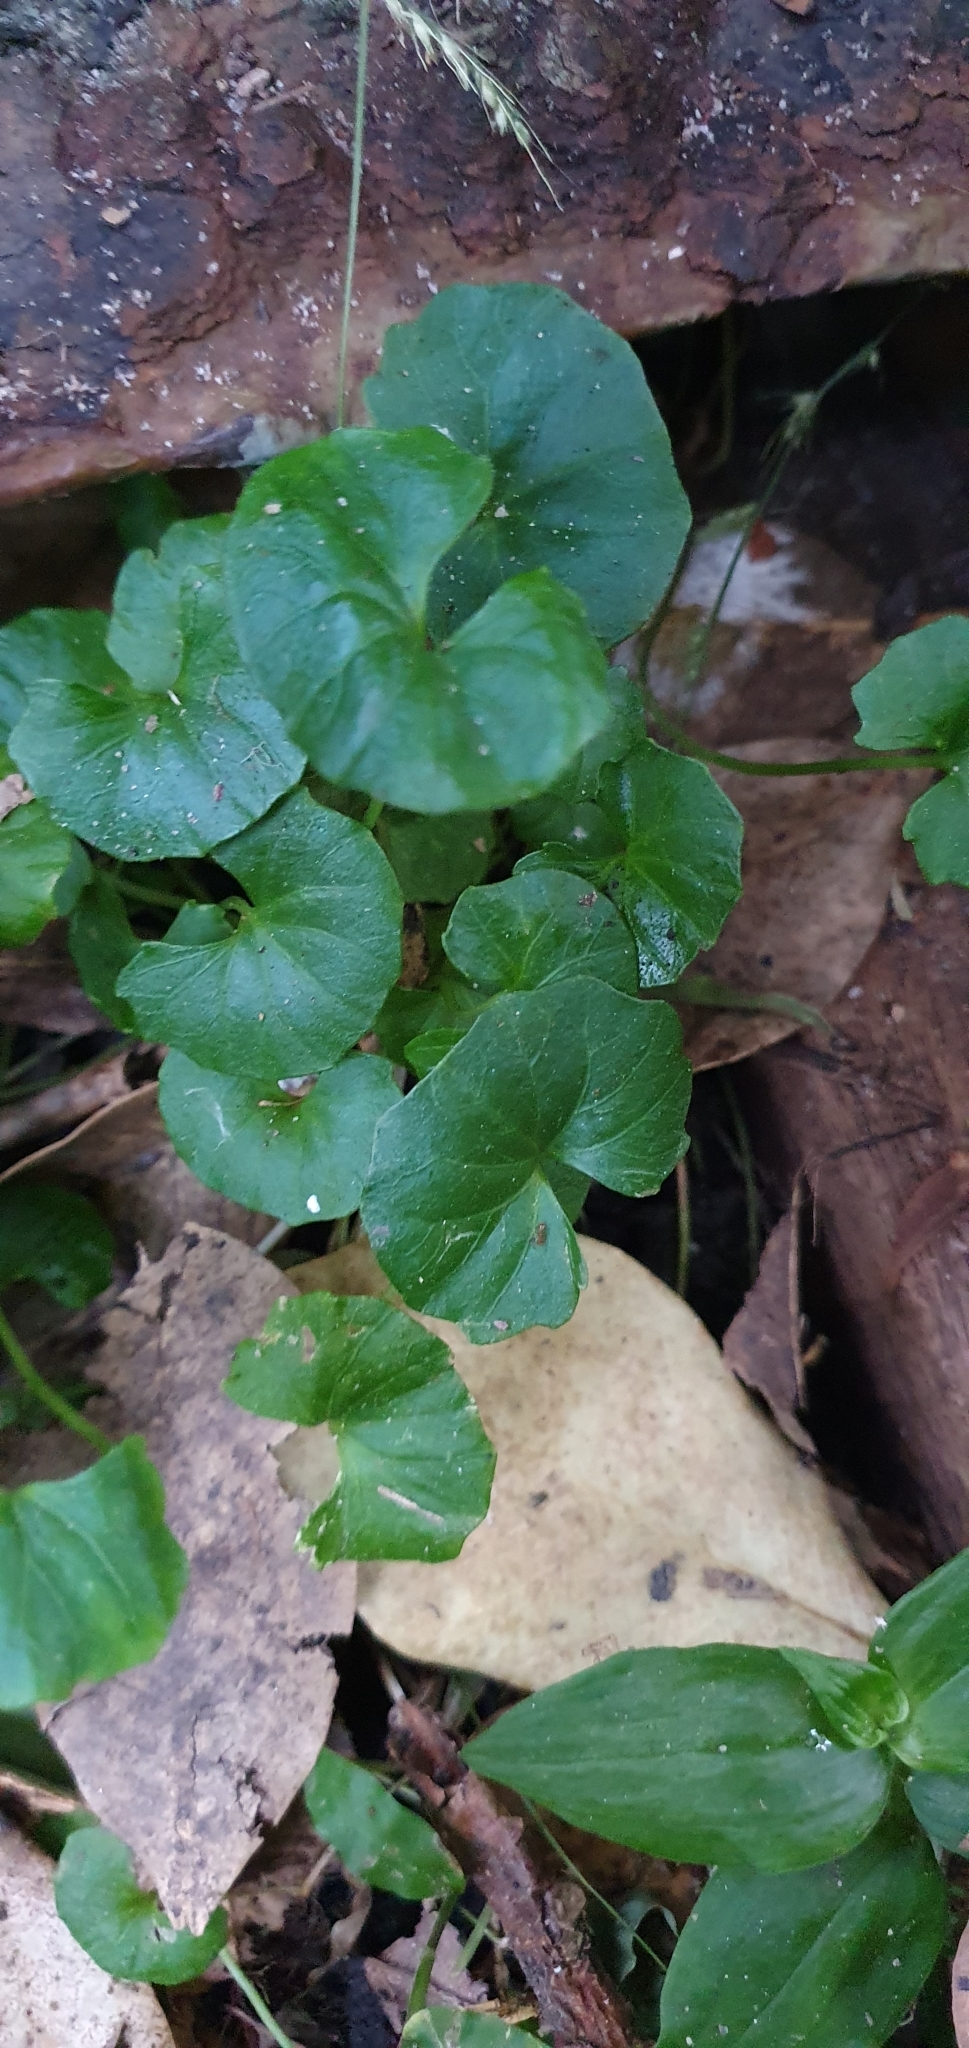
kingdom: Plantae
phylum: Tracheophyta
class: Magnoliopsida
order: Apiales
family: Apiaceae
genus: Centella
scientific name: Centella asiatica
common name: Spadeleaf
